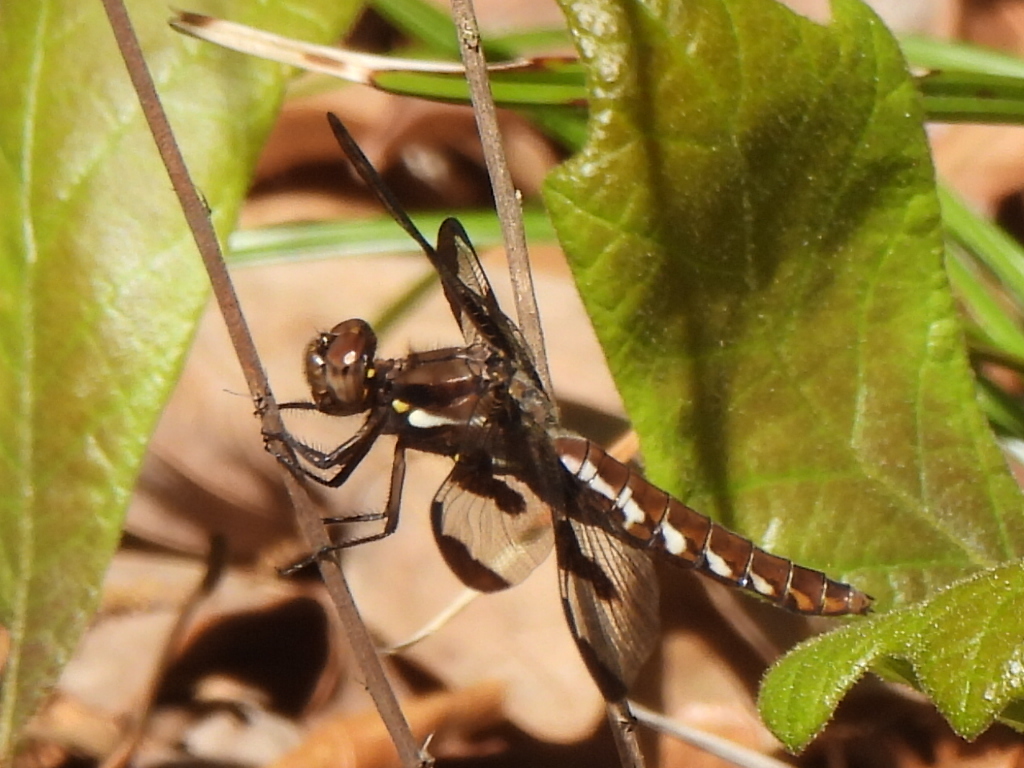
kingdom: Animalia
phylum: Arthropoda
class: Insecta
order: Odonata
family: Libellulidae
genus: Plathemis
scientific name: Plathemis lydia
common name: Common whitetail
